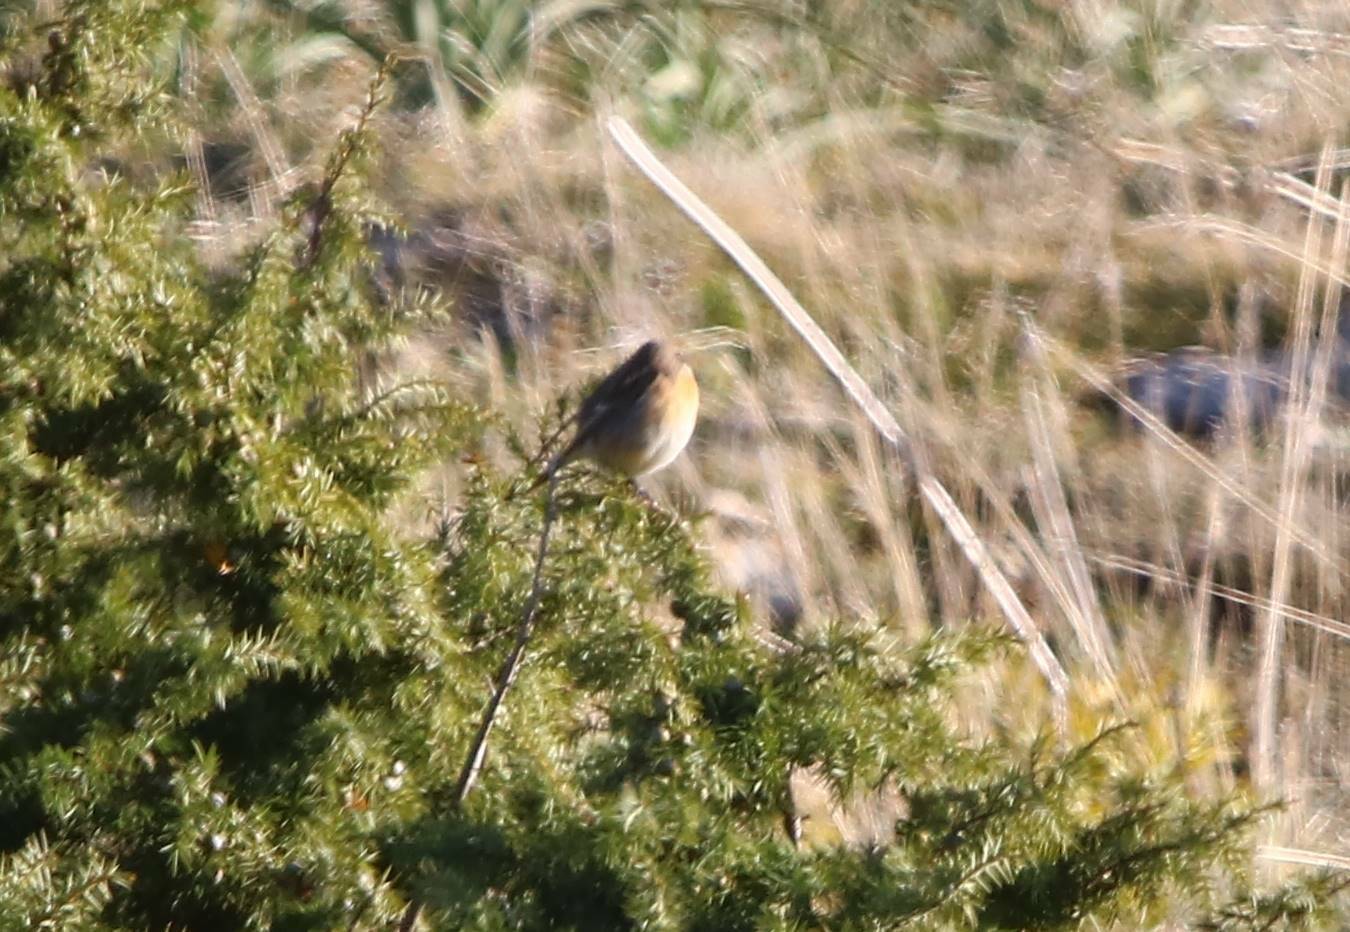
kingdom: Animalia
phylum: Chordata
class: Aves
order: Passeriformes
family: Muscicapidae
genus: Saxicola
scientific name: Saxicola rubicola
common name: European stonechat
